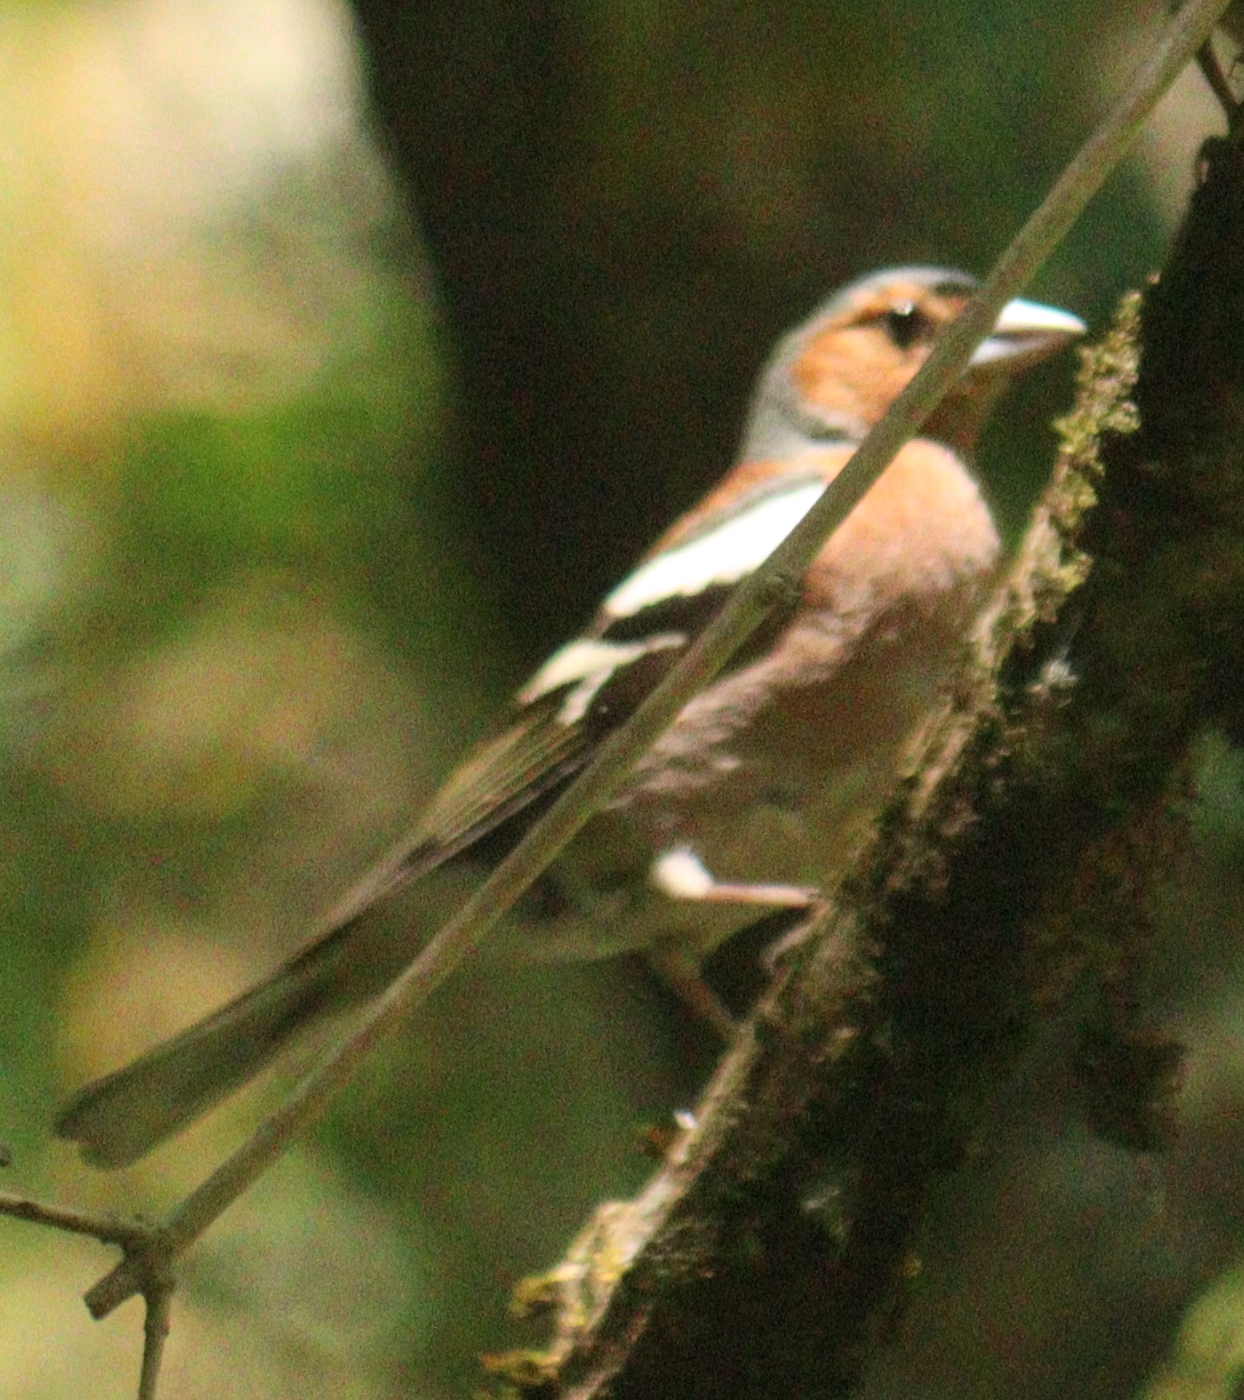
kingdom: Animalia
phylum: Chordata
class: Aves
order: Passeriformes
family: Fringillidae
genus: Fringilla
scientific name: Fringilla coelebs
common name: Common chaffinch
